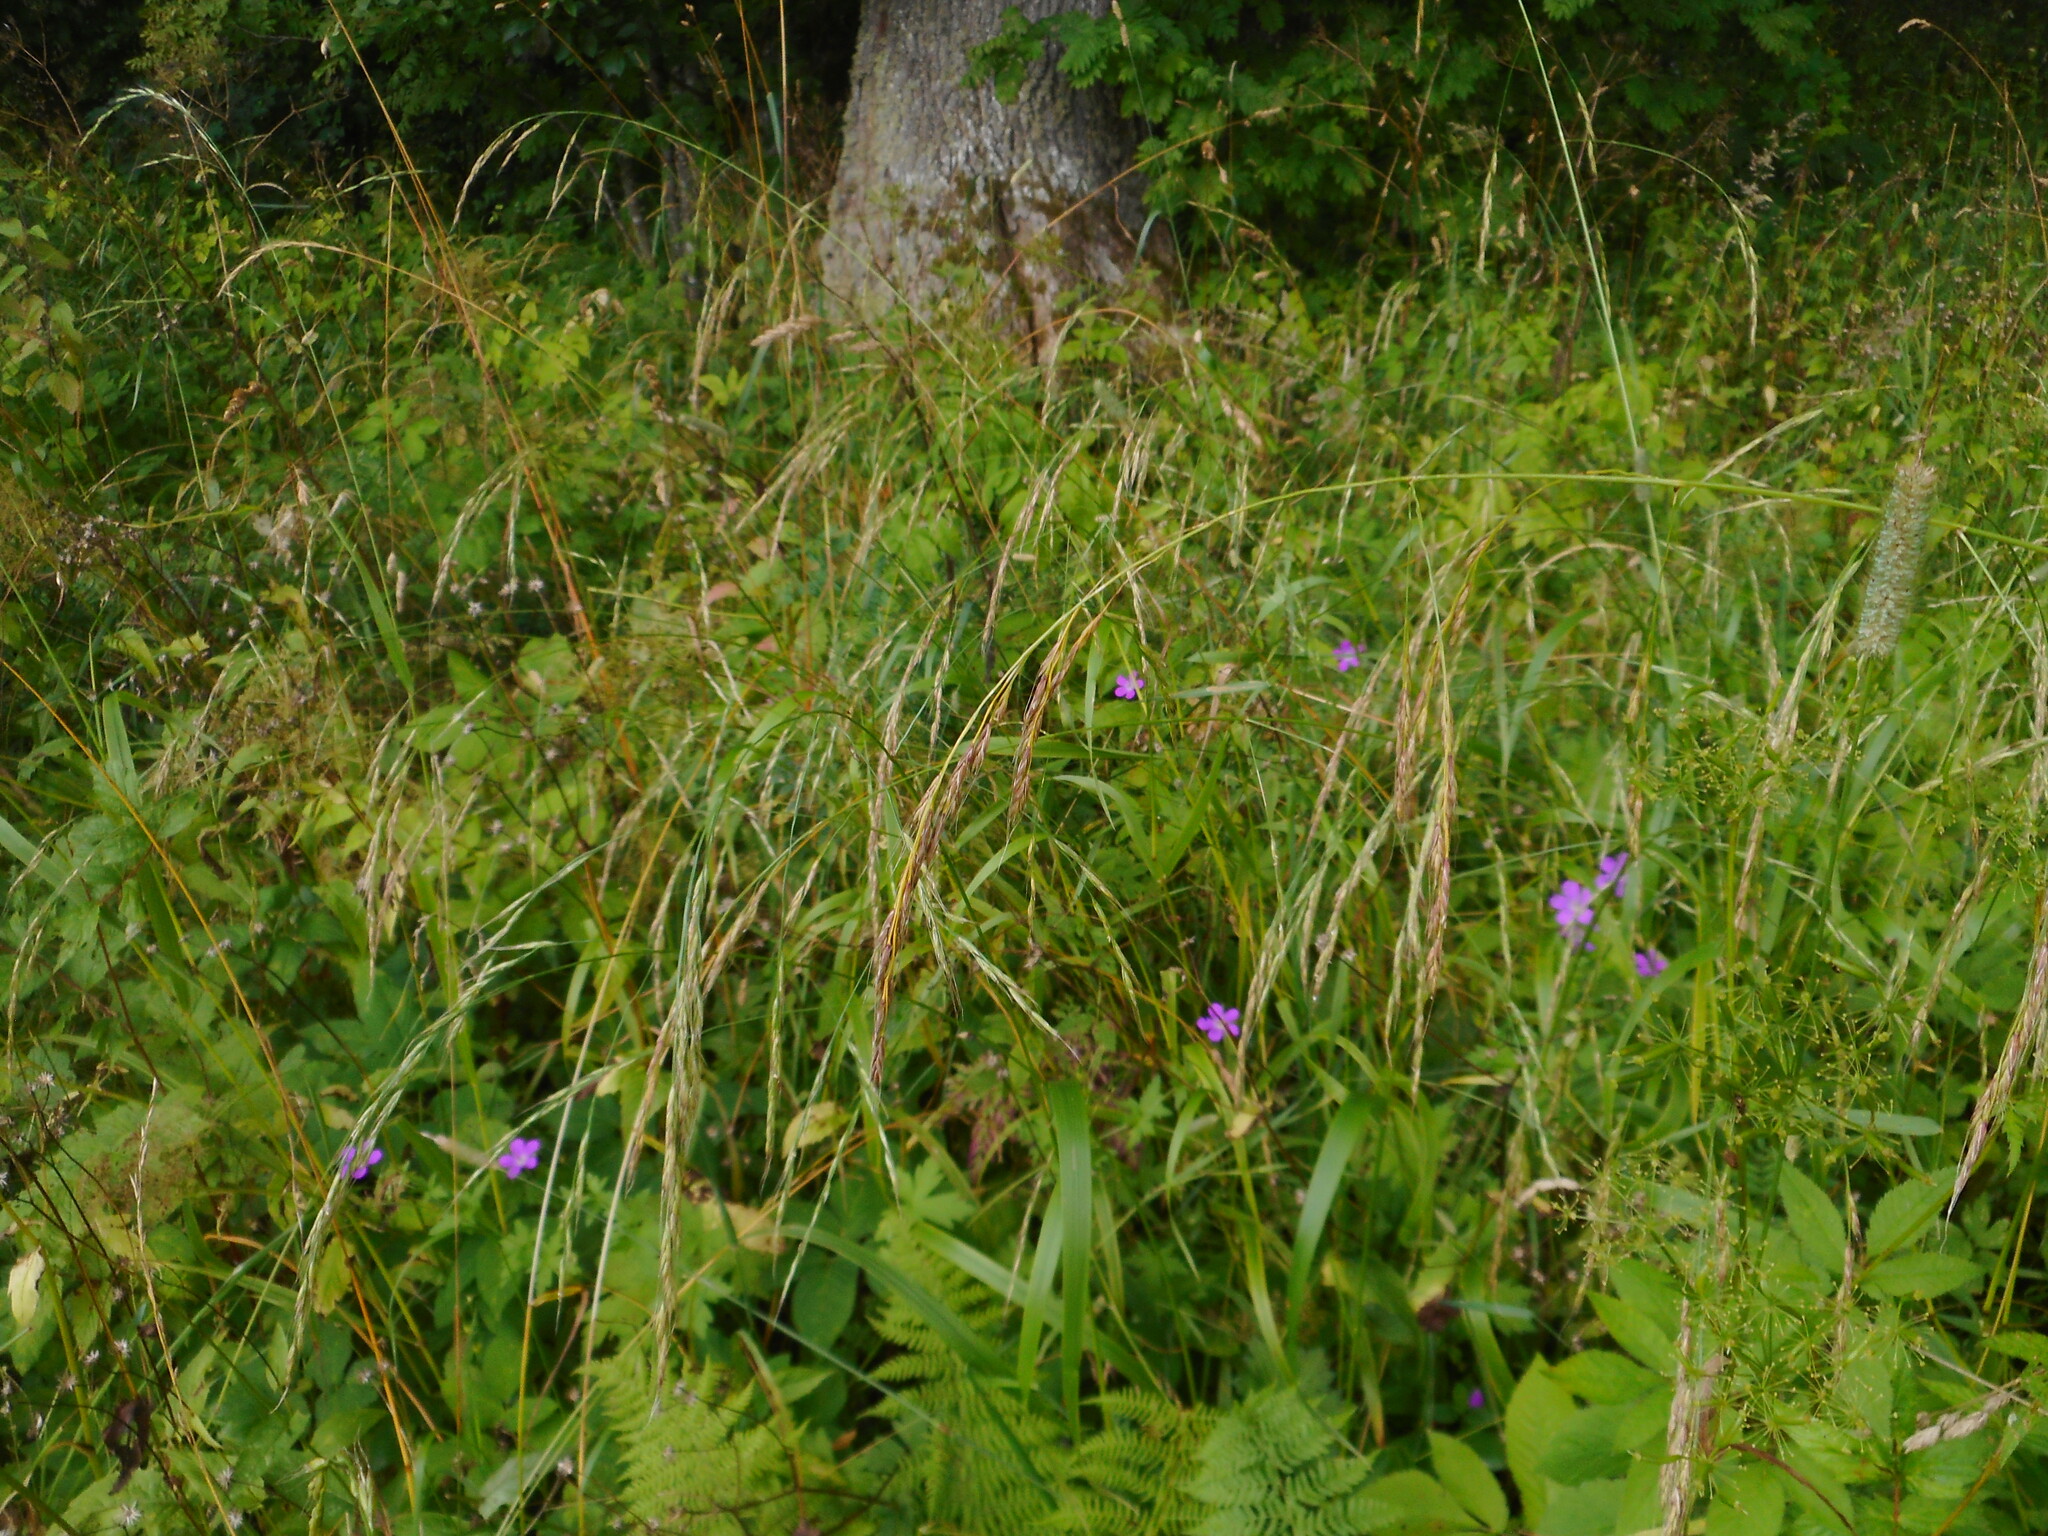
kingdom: Plantae
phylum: Tracheophyta
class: Liliopsida
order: Poales
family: Poaceae
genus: Lolium
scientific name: Lolium giganteum
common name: Giant fescue
